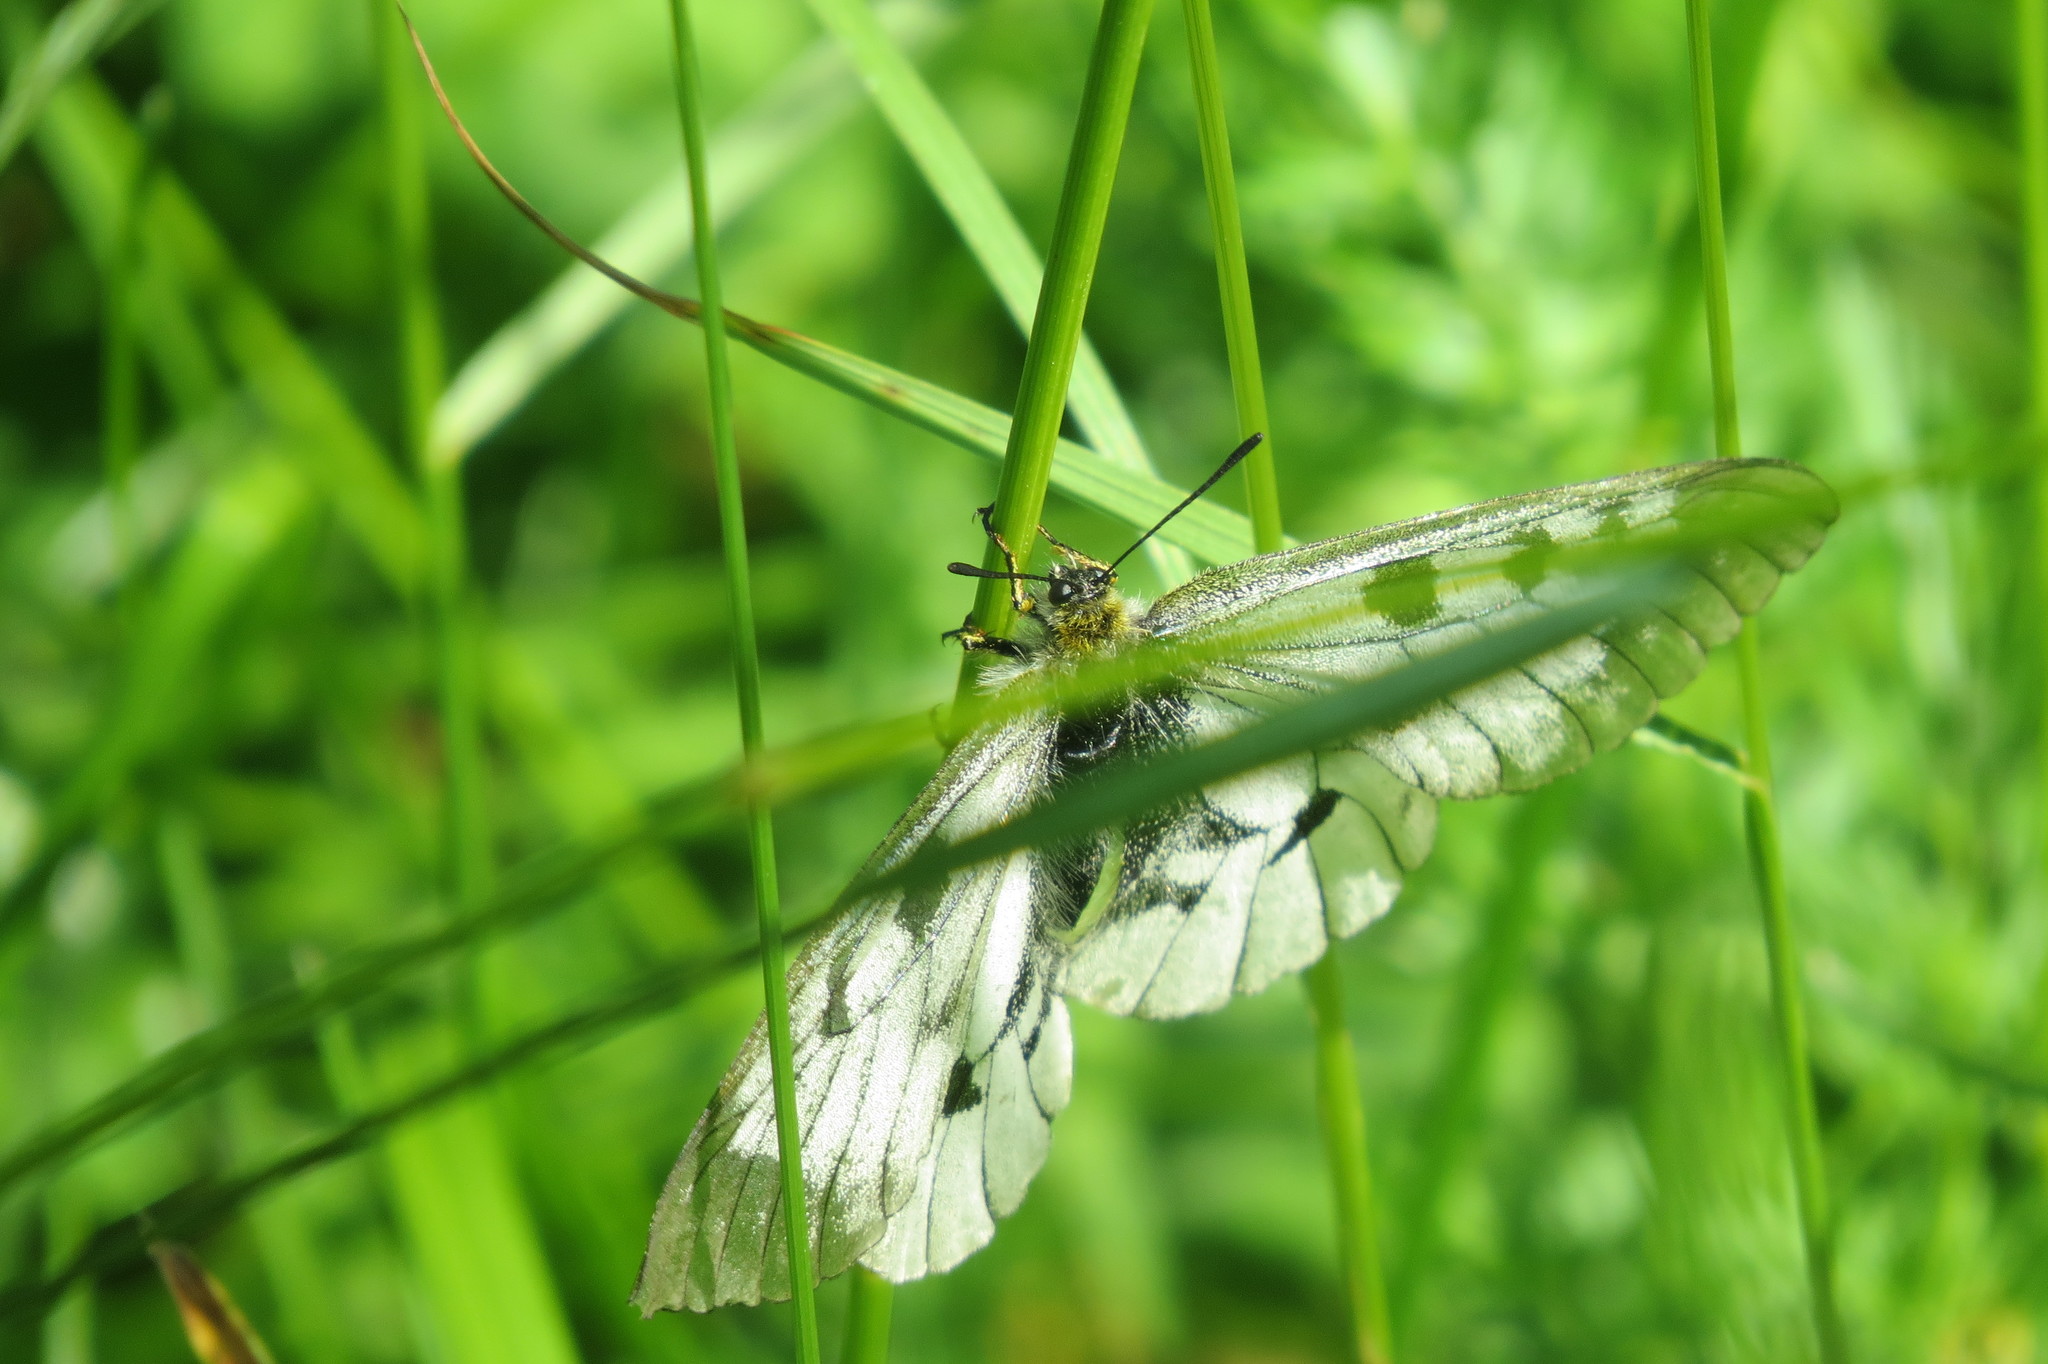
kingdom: Animalia
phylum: Arthropoda
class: Insecta
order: Lepidoptera
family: Papilionidae
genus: Parnassius
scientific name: Parnassius mnemosyne
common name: Clouded apollo
